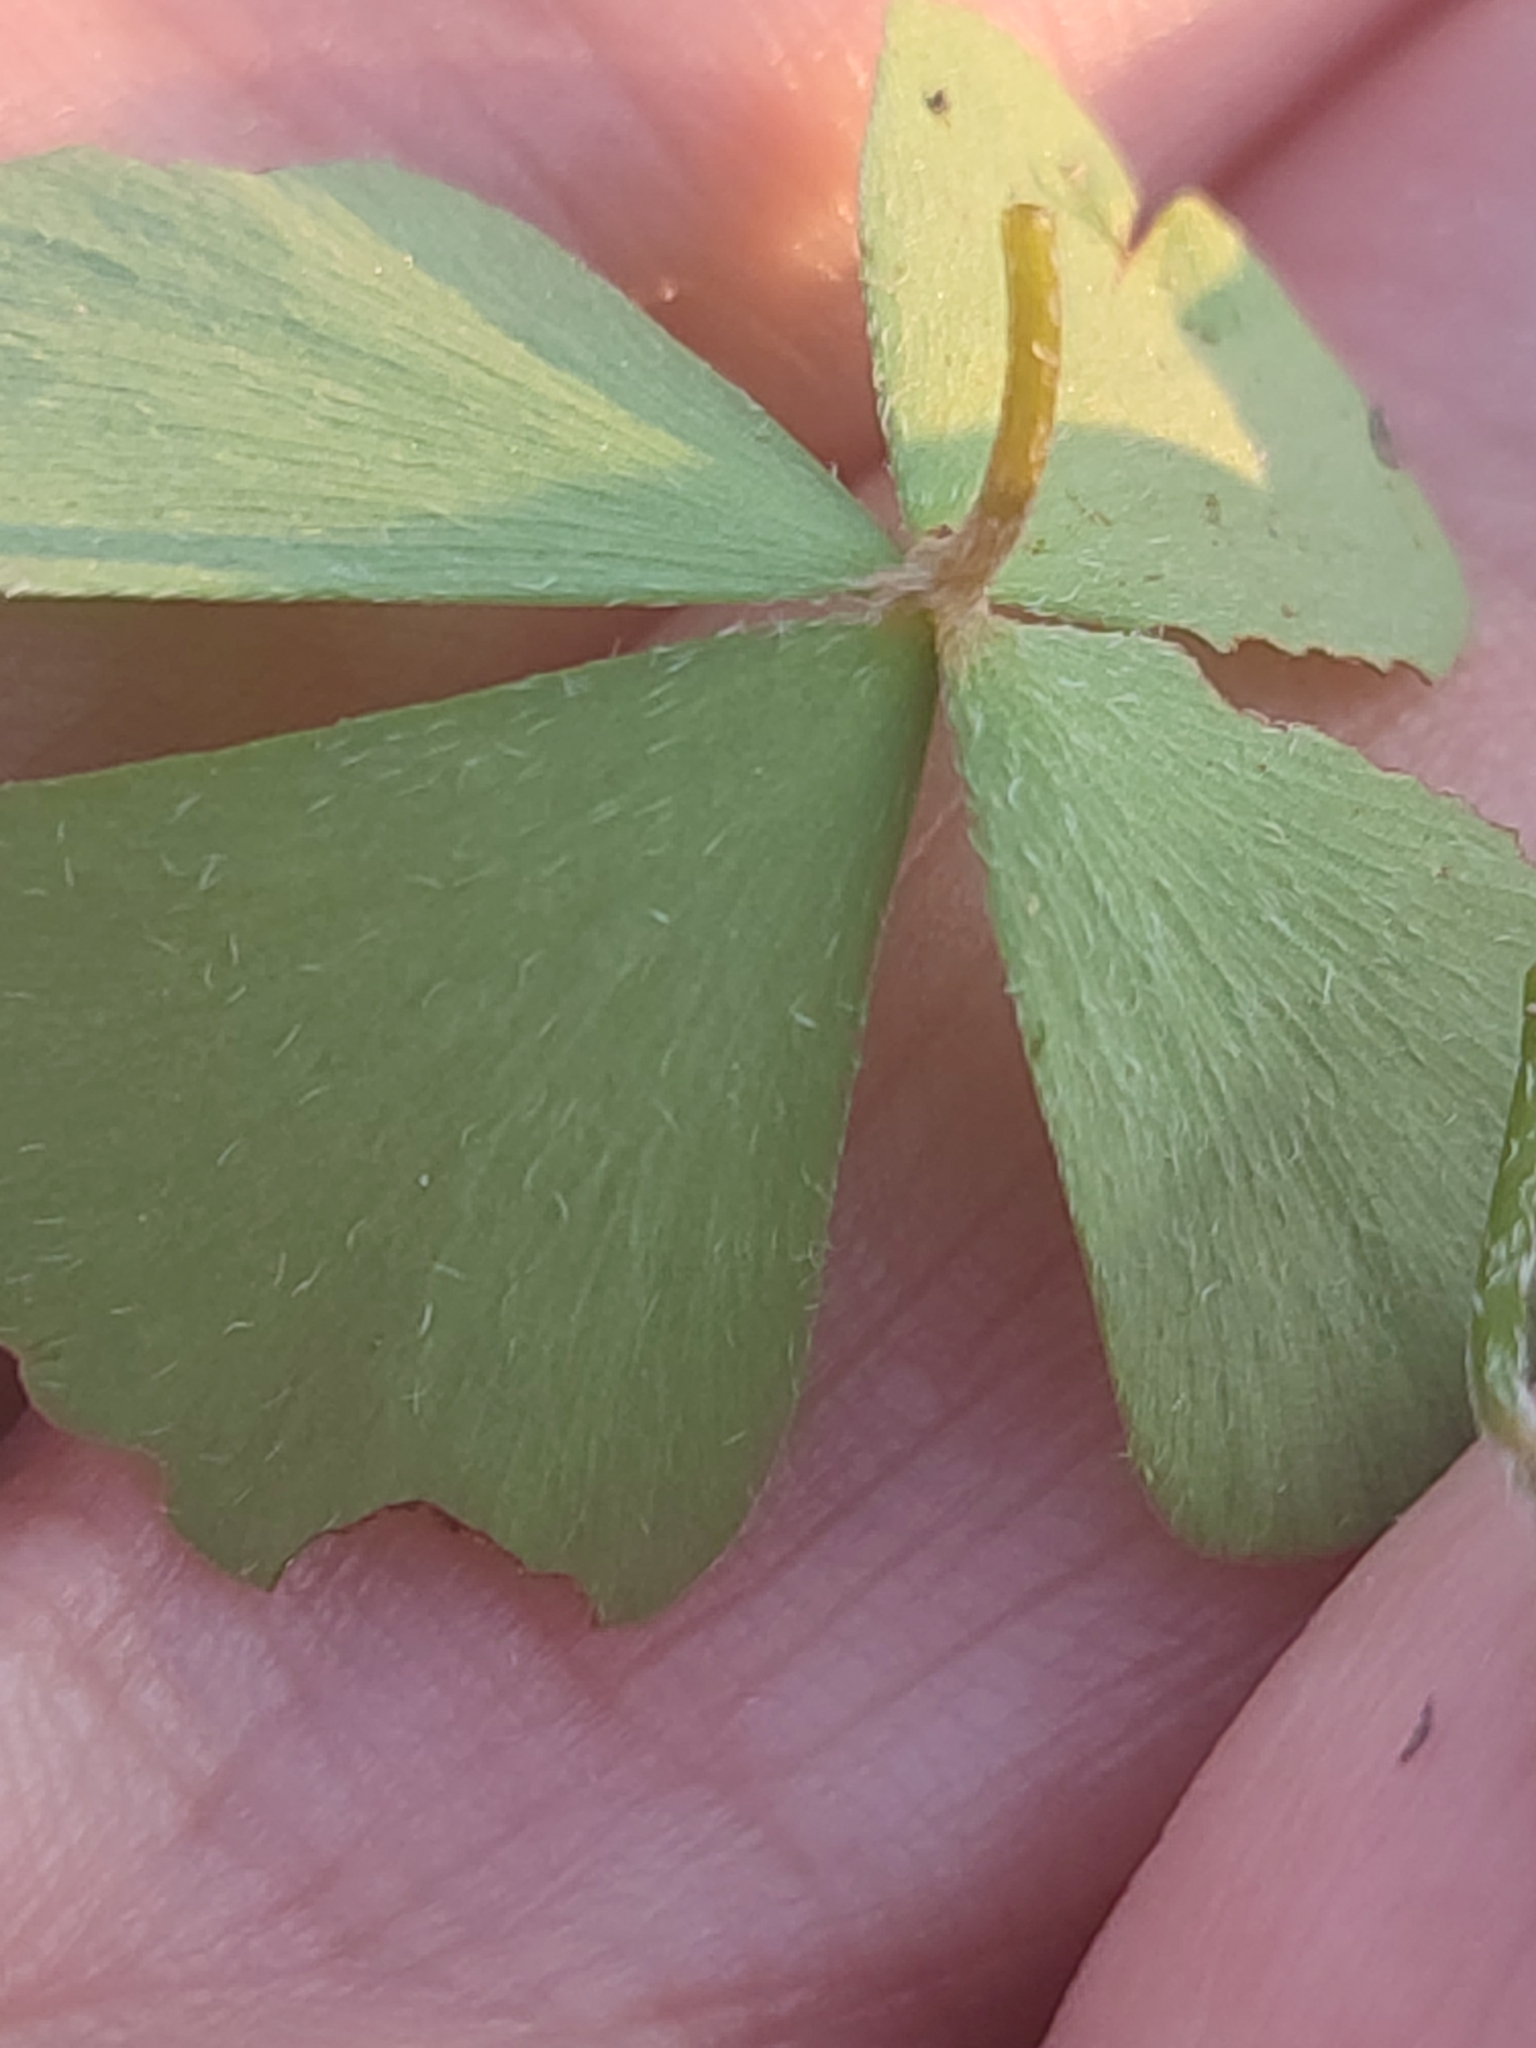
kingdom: Plantae
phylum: Tracheophyta
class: Polypodiopsida
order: Salviniales
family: Marsileaceae
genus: Marsilea
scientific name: Marsilea crenata
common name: False pepperwort
